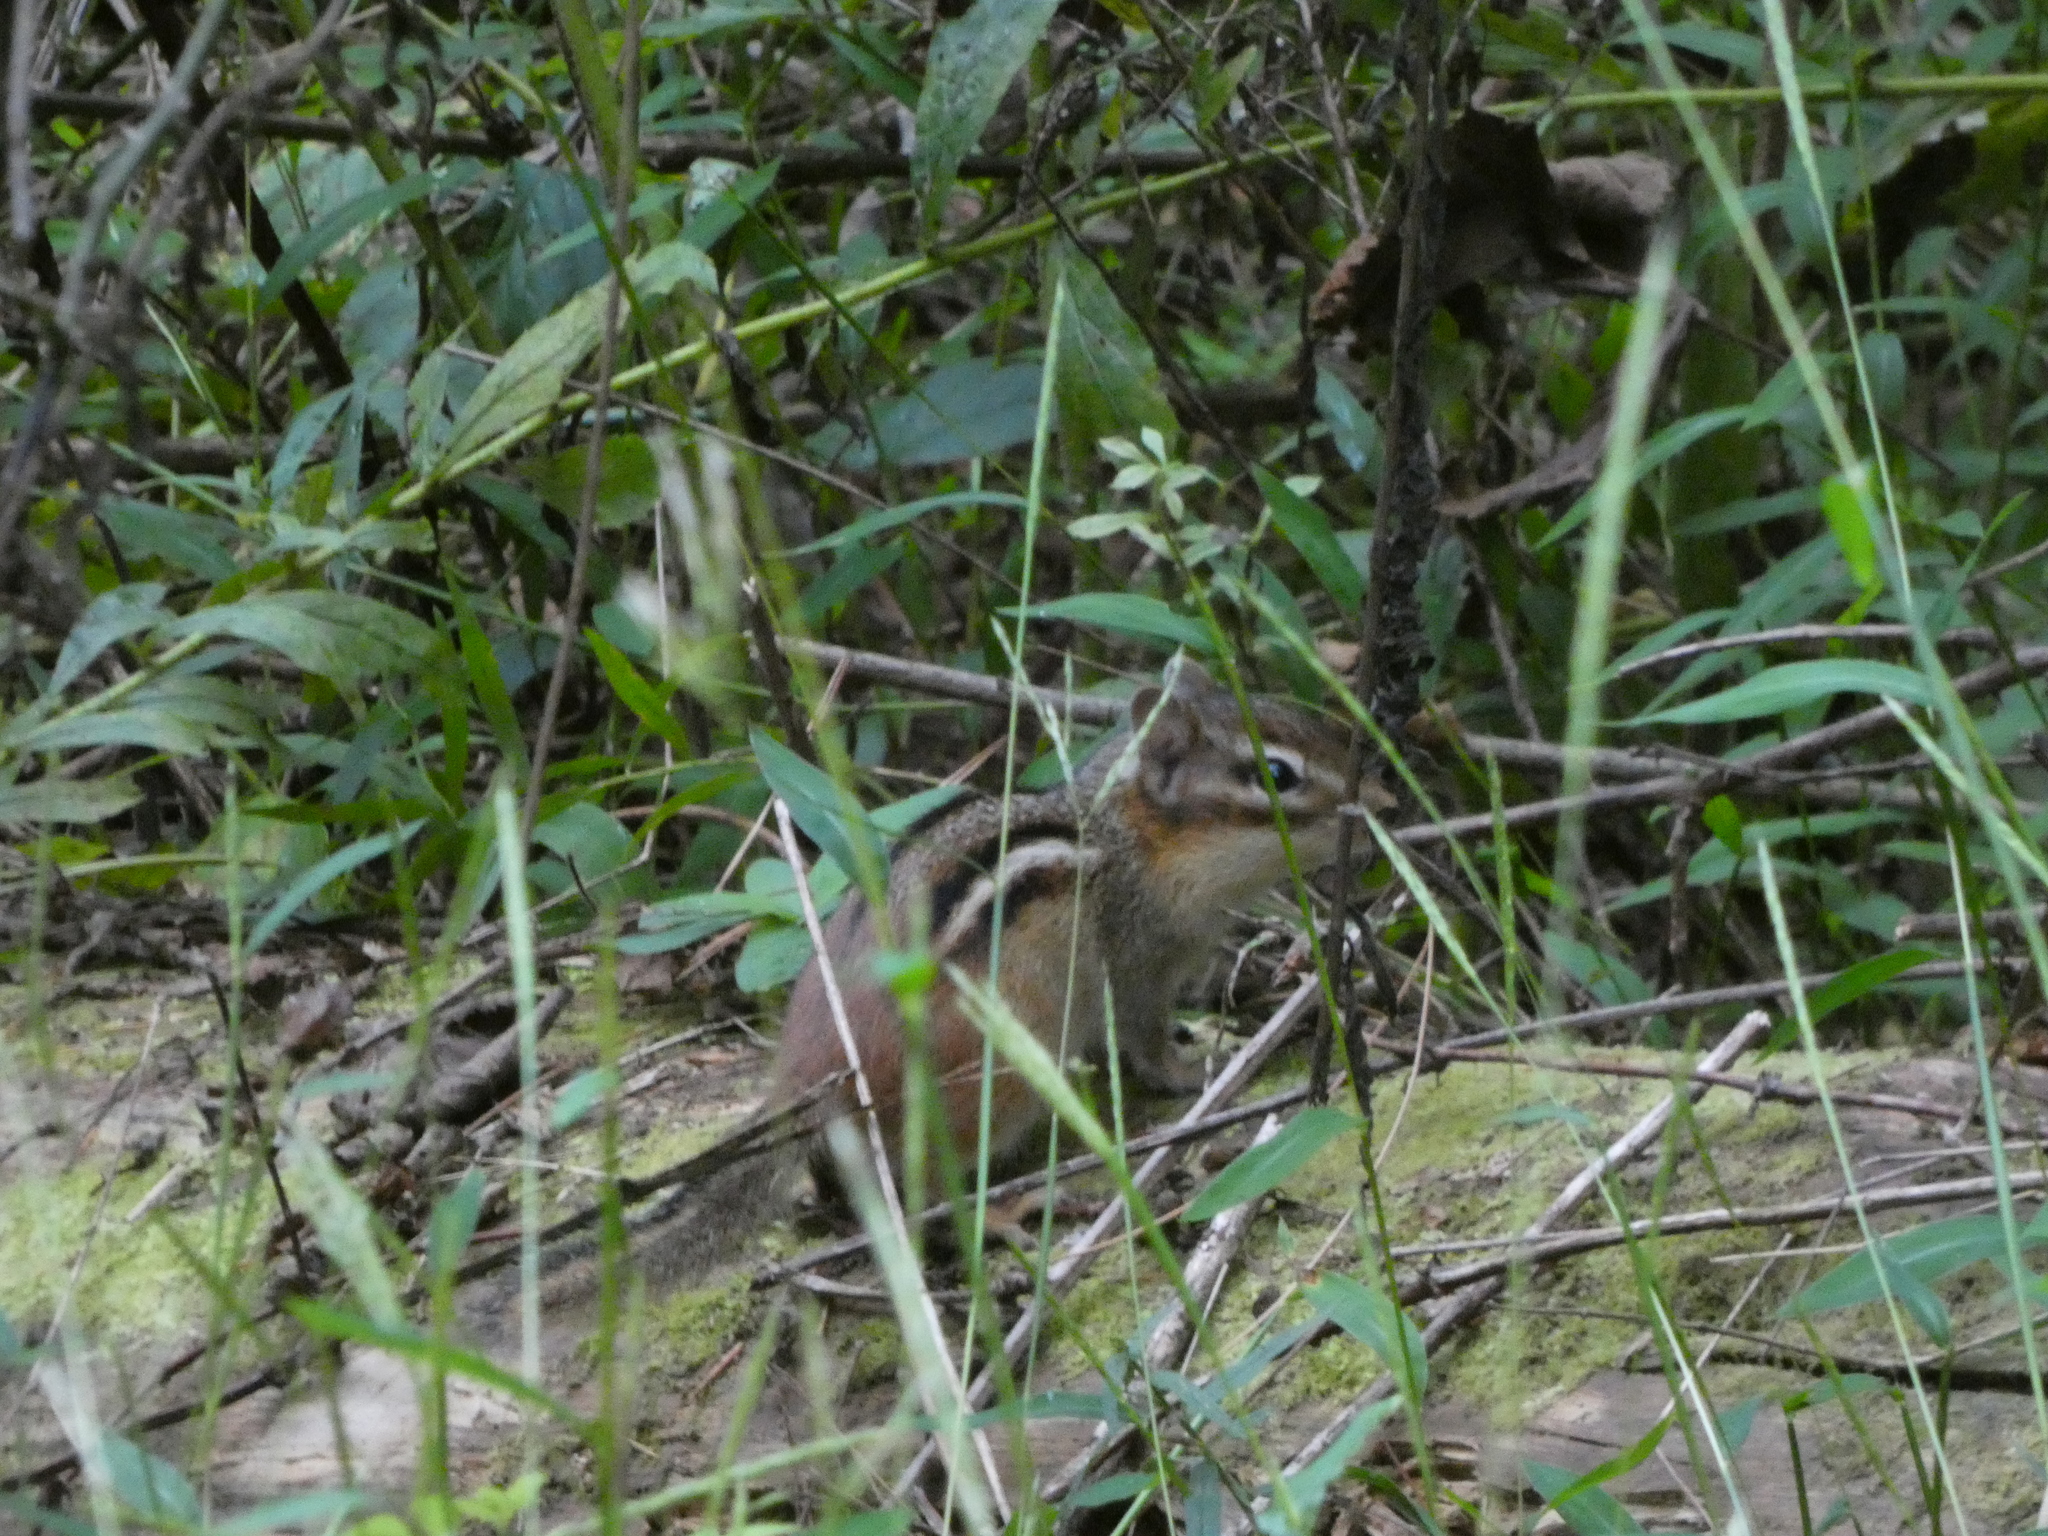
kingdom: Animalia
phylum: Chordata
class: Mammalia
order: Rodentia
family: Sciuridae
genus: Tamias
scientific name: Tamias striatus
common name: Eastern chipmunk
